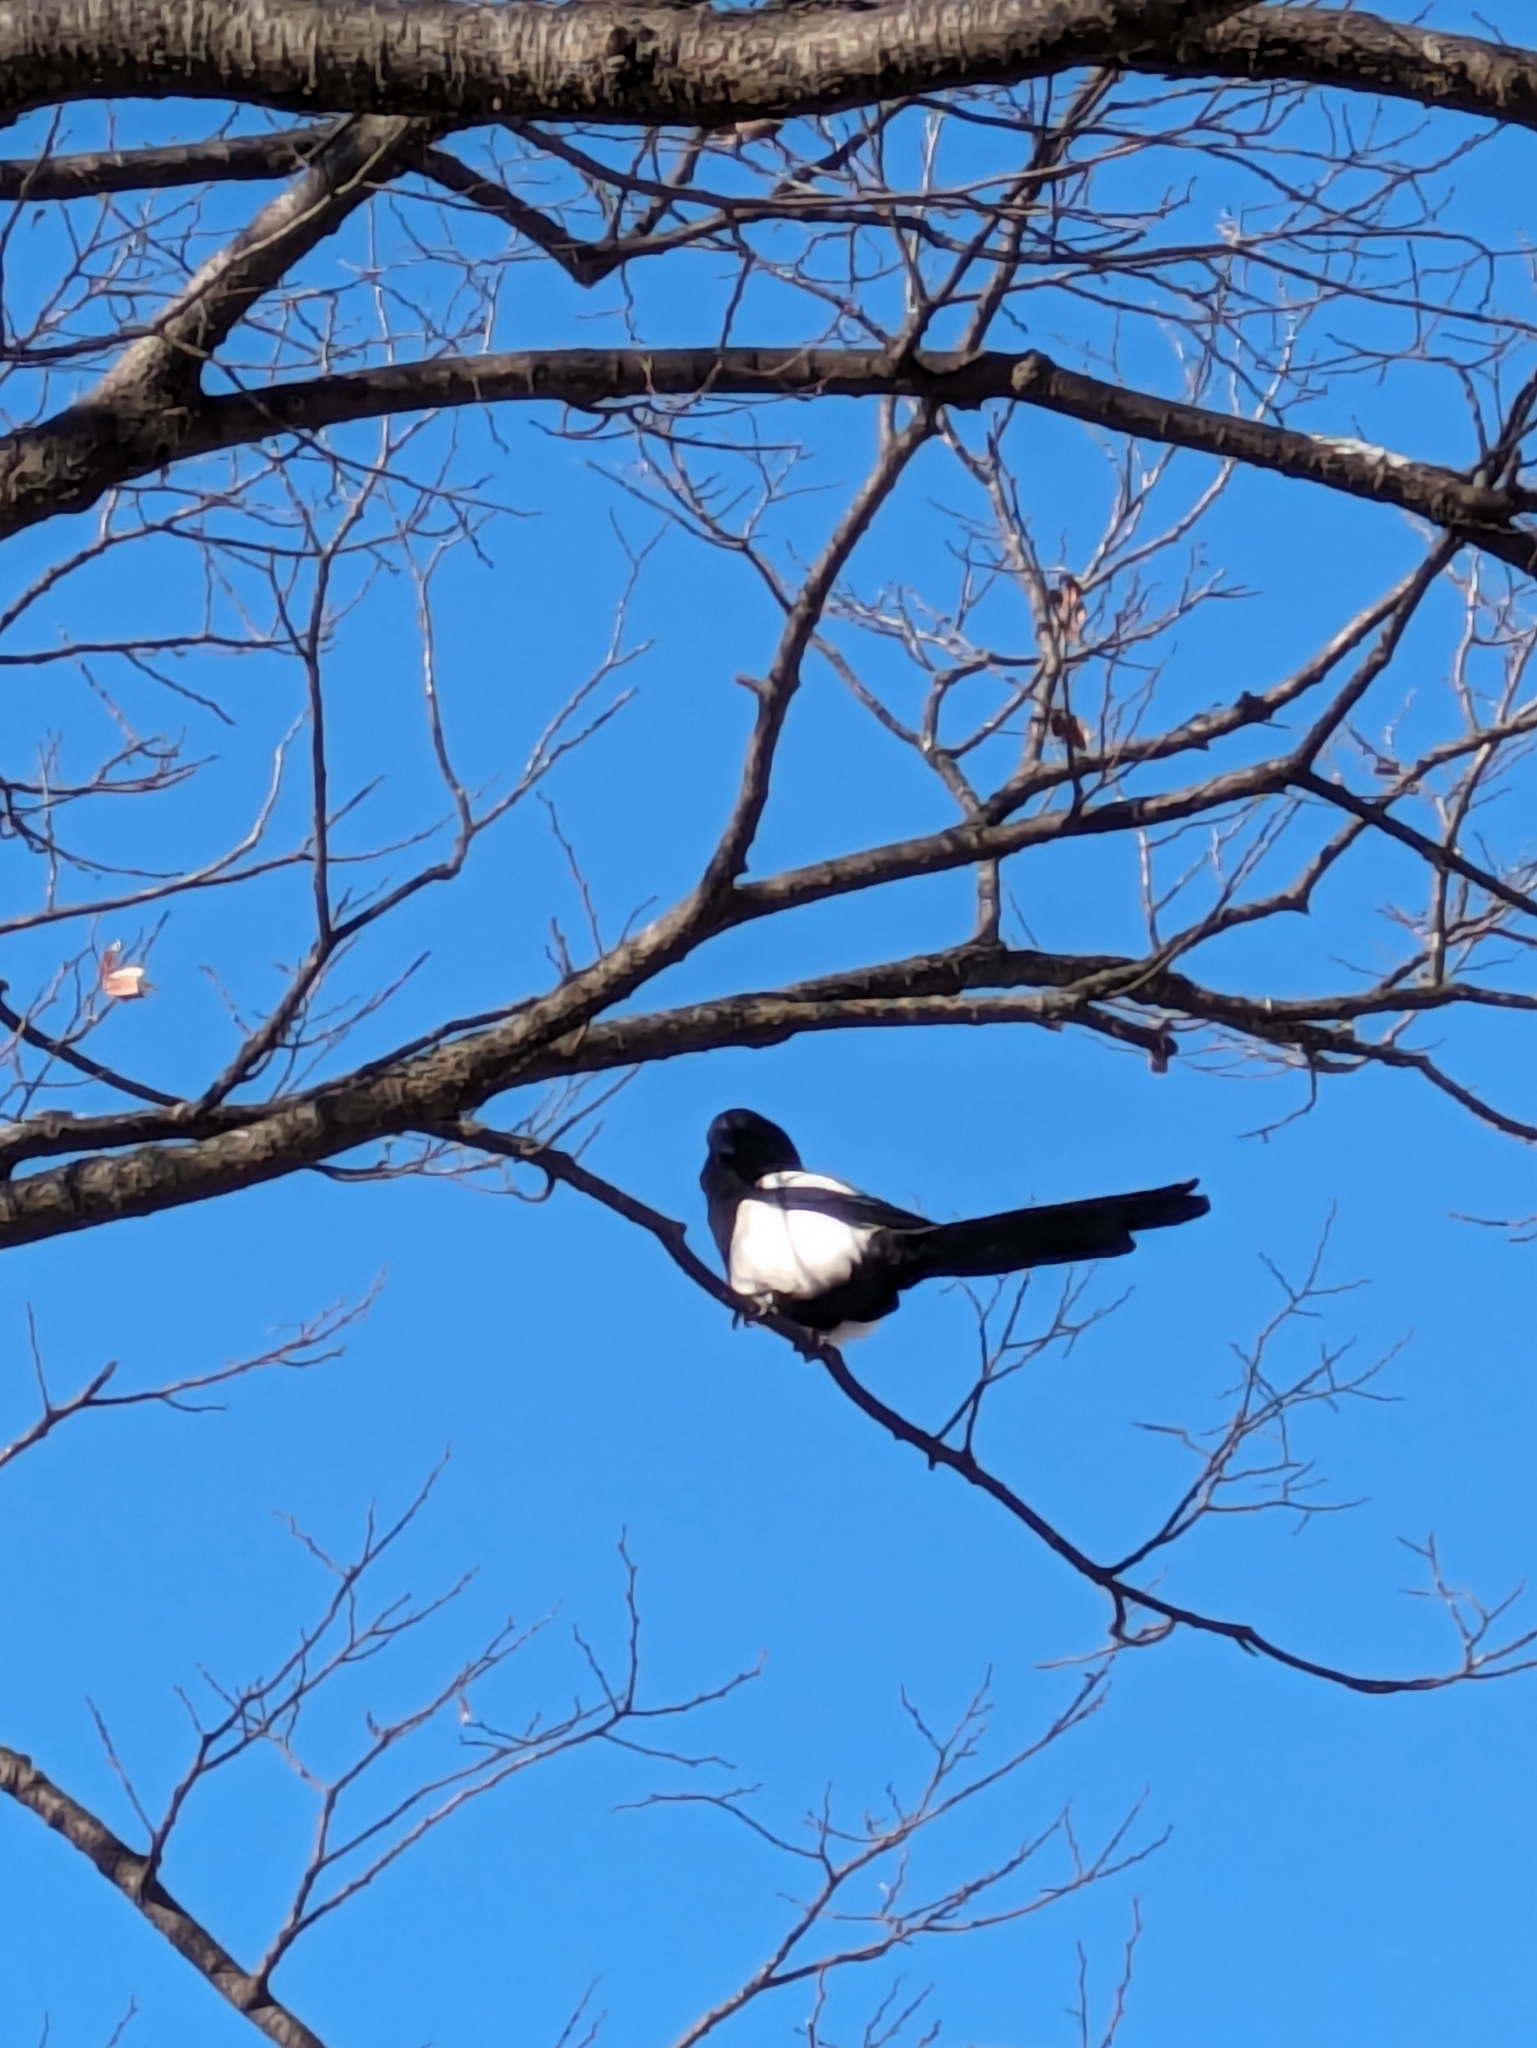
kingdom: Animalia
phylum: Chordata
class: Aves
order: Passeriformes
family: Corvidae
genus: Pica
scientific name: Pica serica
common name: Oriental magpie
